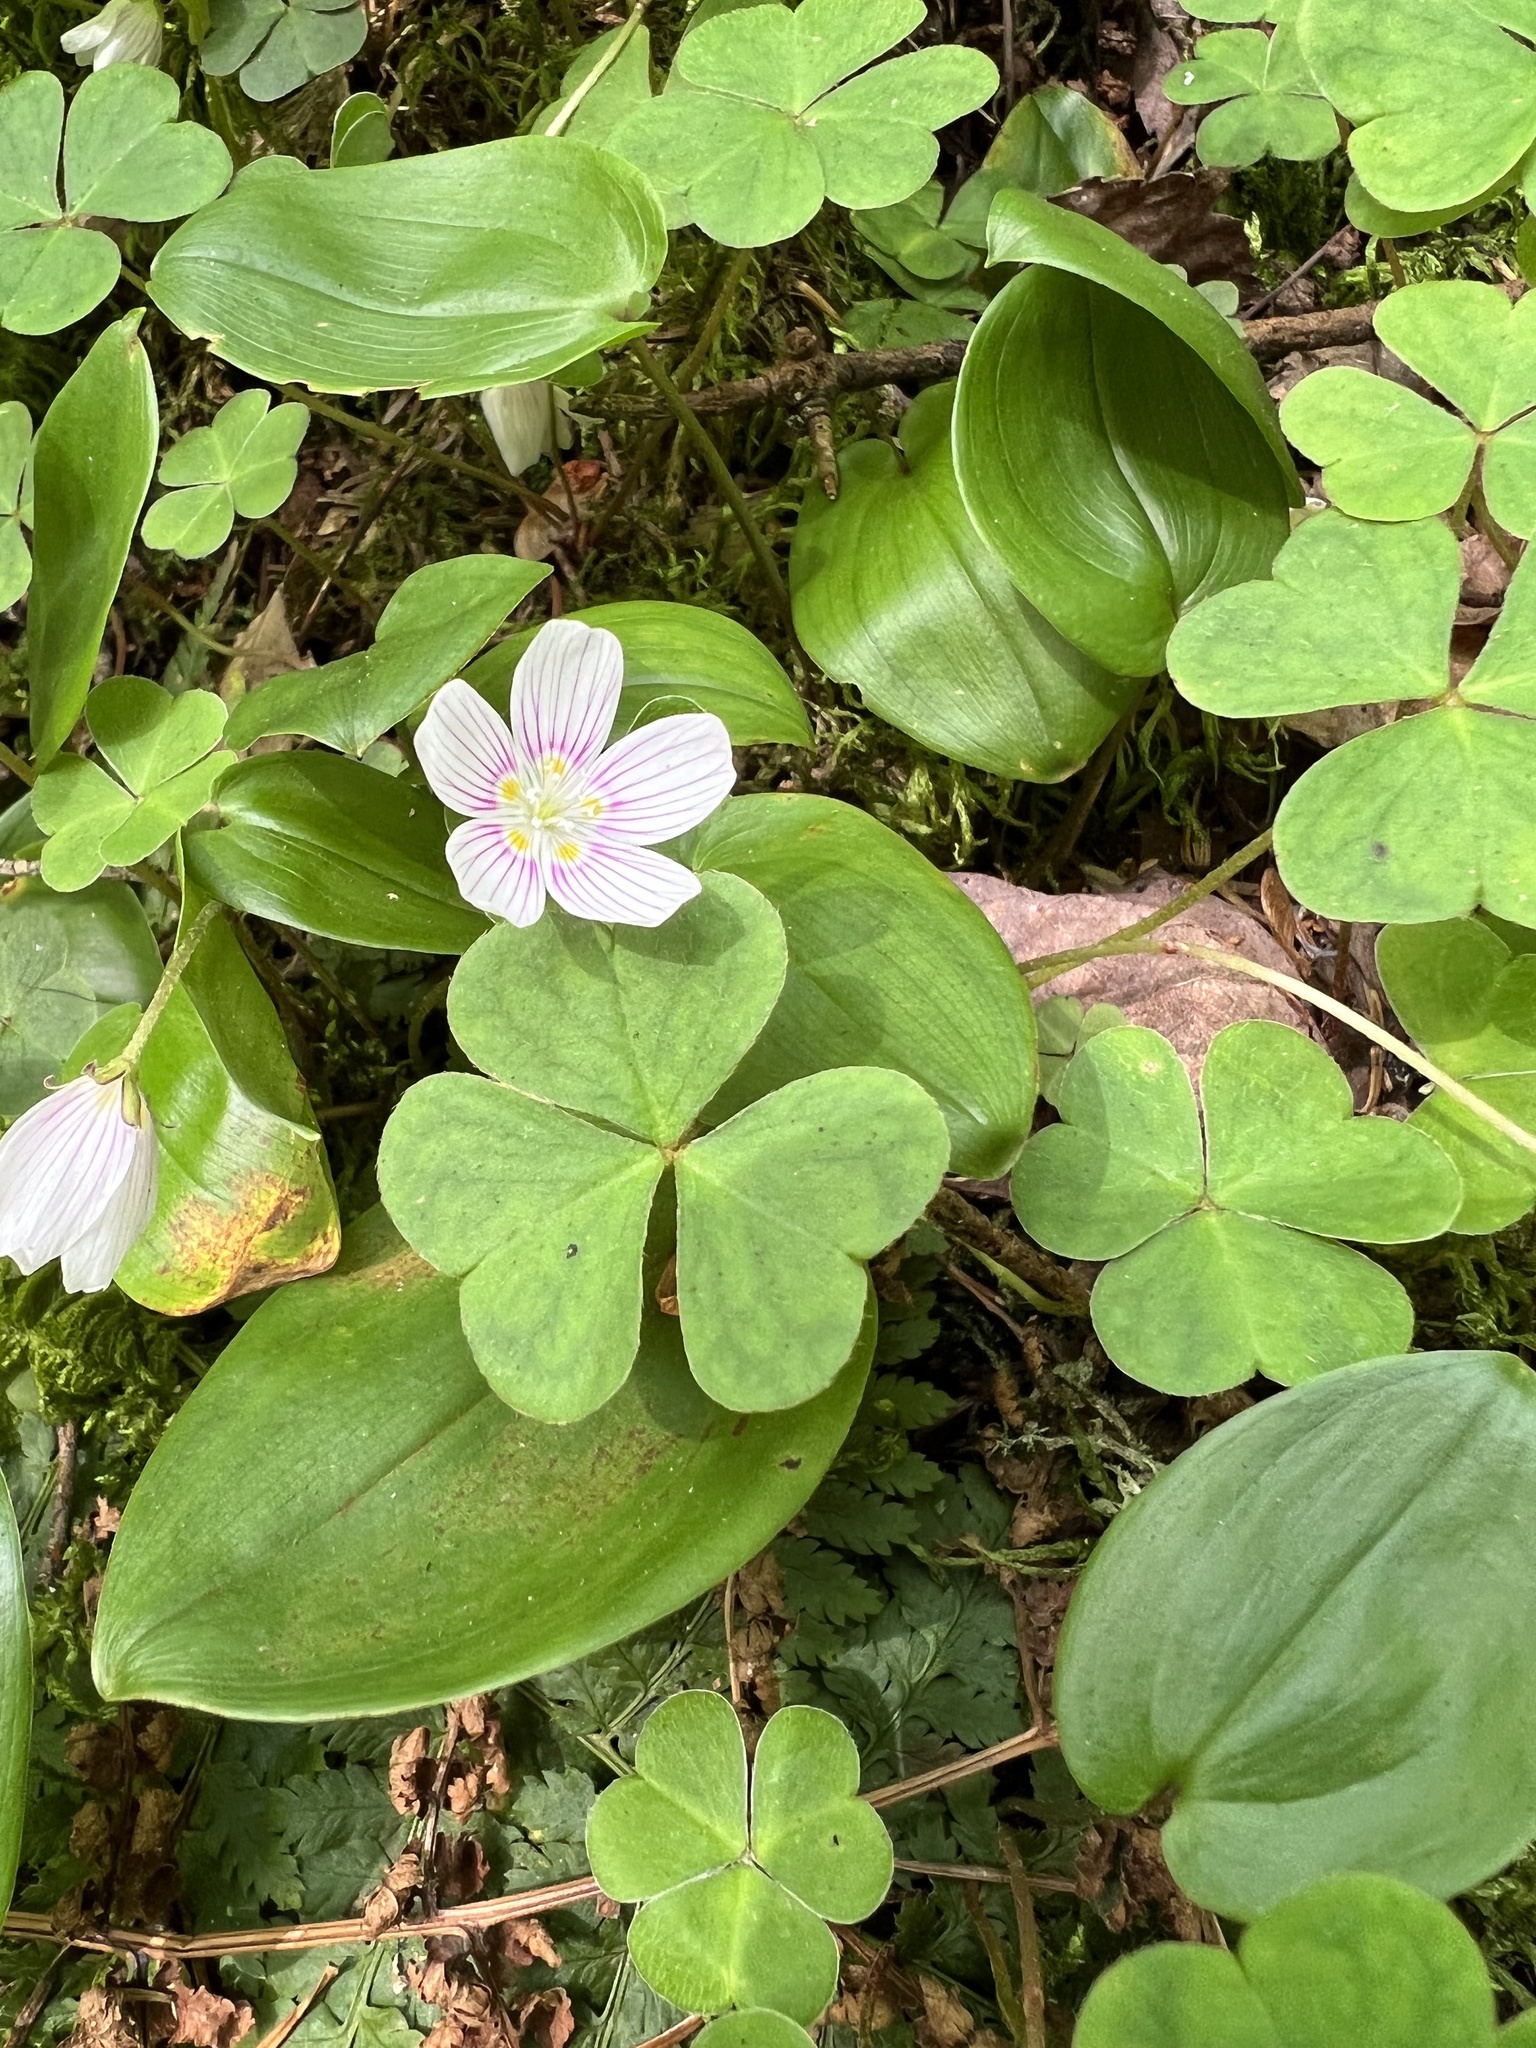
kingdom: Plantae
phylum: Tracheophyta
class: Magnoliopsida
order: Oxalidales
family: Oxalidaceae
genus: Oxalis
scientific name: Oxalis montana
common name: American wood-sorrel
